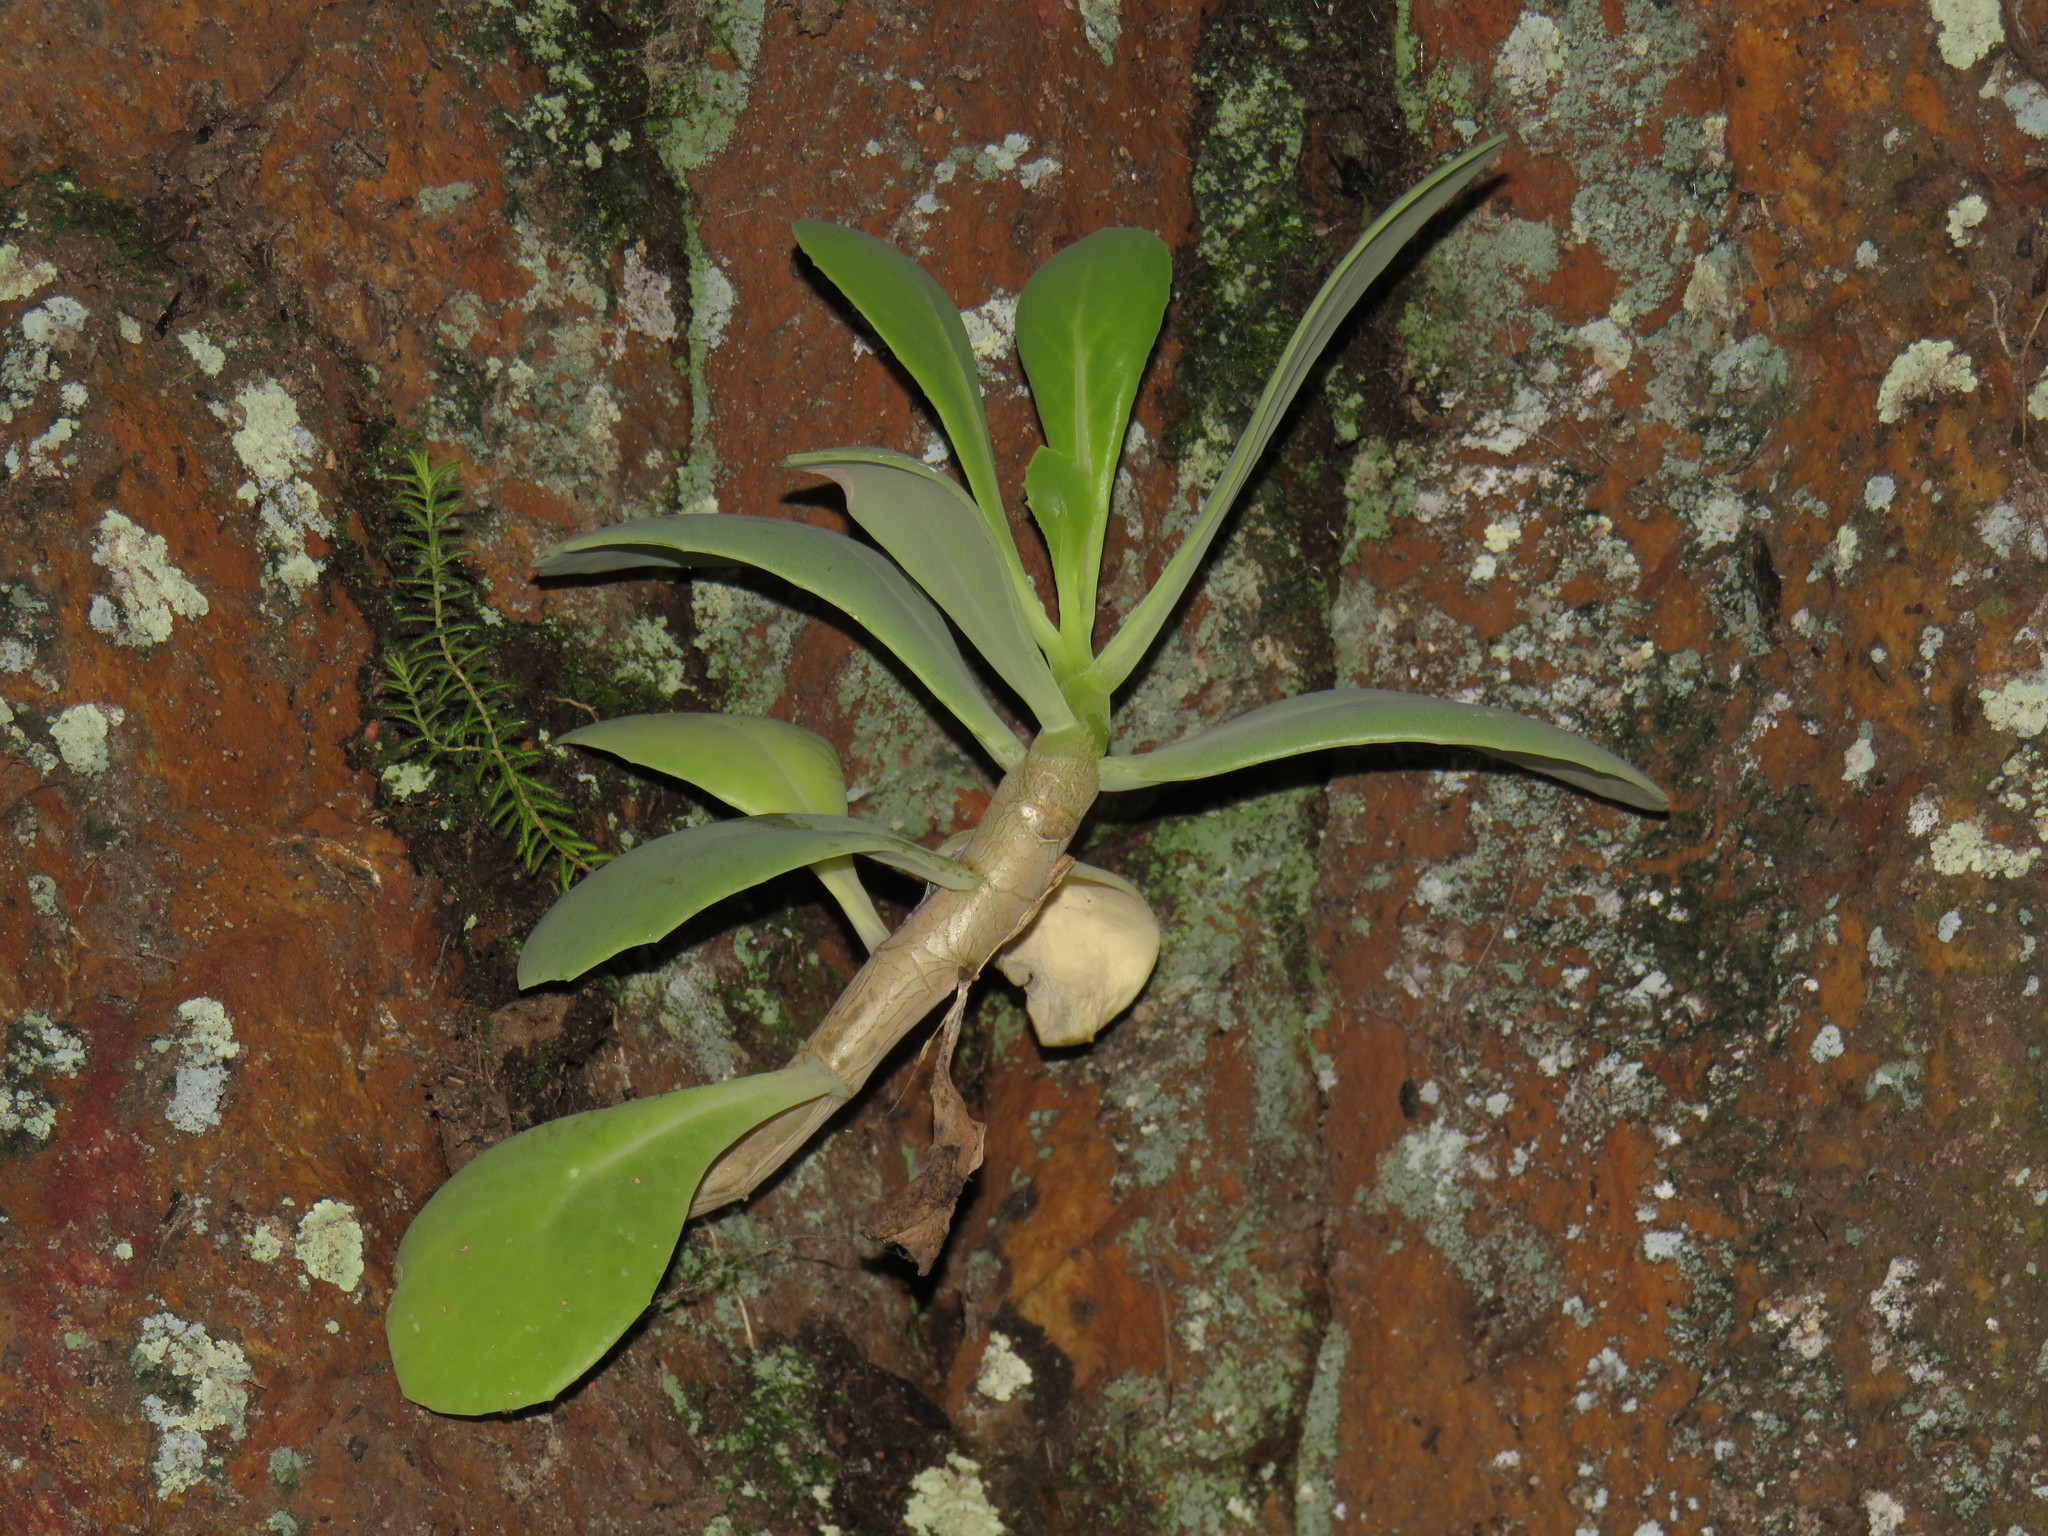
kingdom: Plantae
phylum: Tracheophyta
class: Magnoliopsida
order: Asterales
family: Asteraceae
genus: Othonna
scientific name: Othonna dentata
